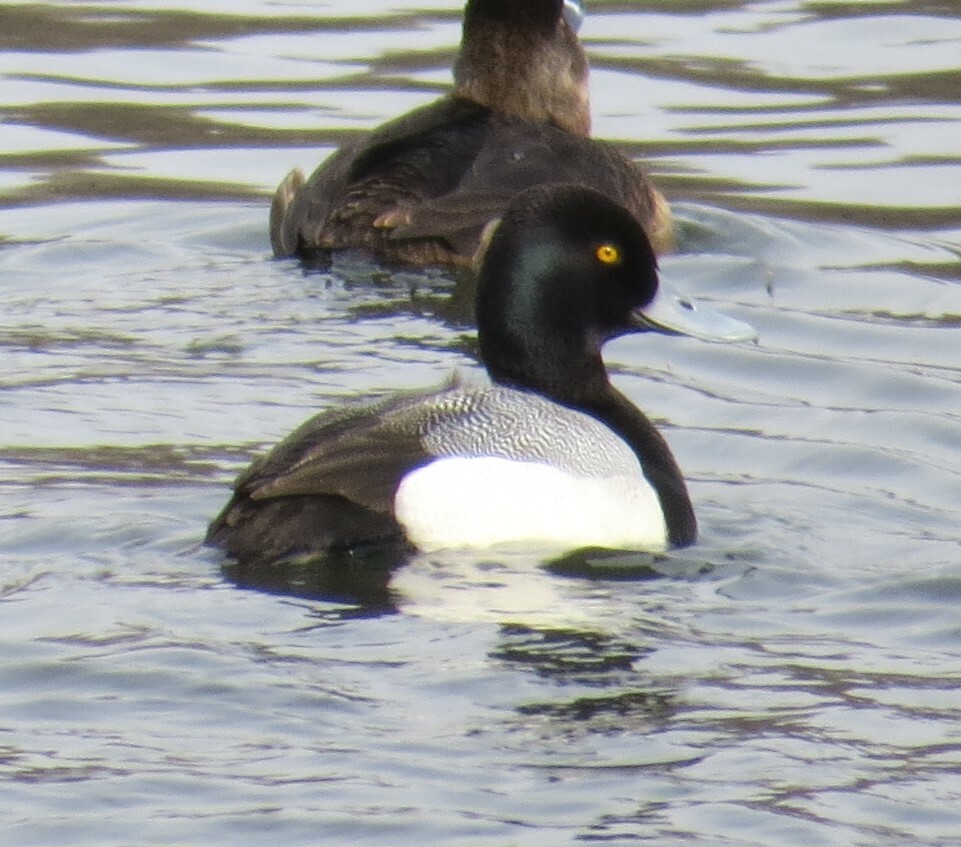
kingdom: Animalia
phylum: Chordata
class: Aves
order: Anseriformes
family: Anatidae
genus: Aythya
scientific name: Aythya affinis
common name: Lesser scaup
